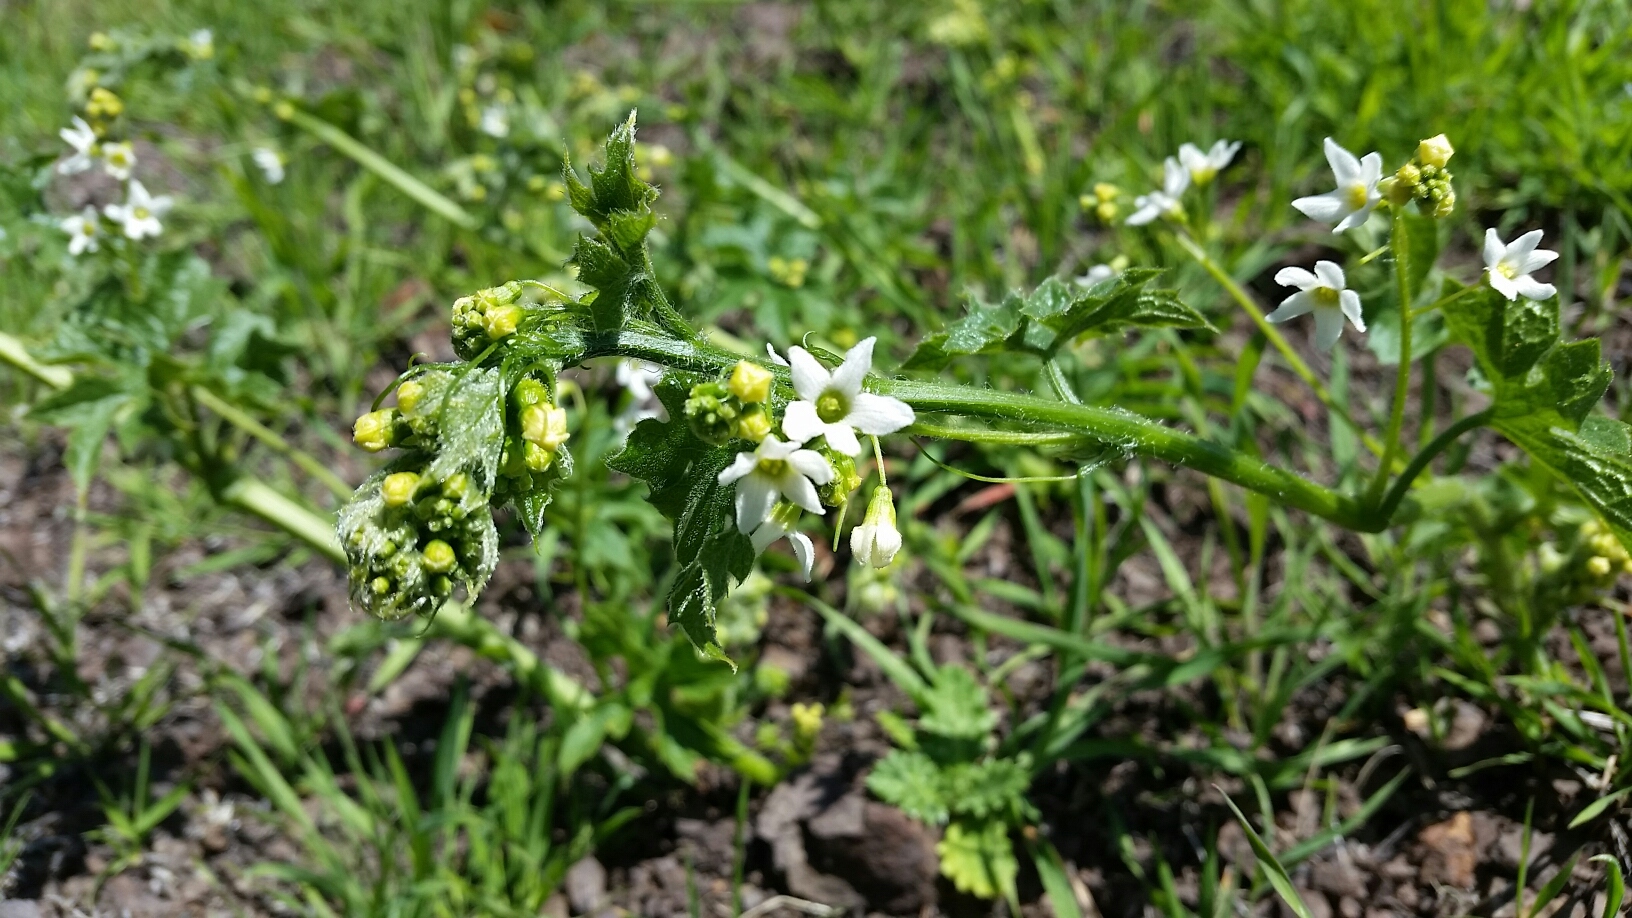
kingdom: Plantae
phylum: Tracheophyta
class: Magnoliopsida
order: Cucurbitales
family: Cucurbitaceae
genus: Marah
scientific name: Marah oregana
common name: Coastal manroot
